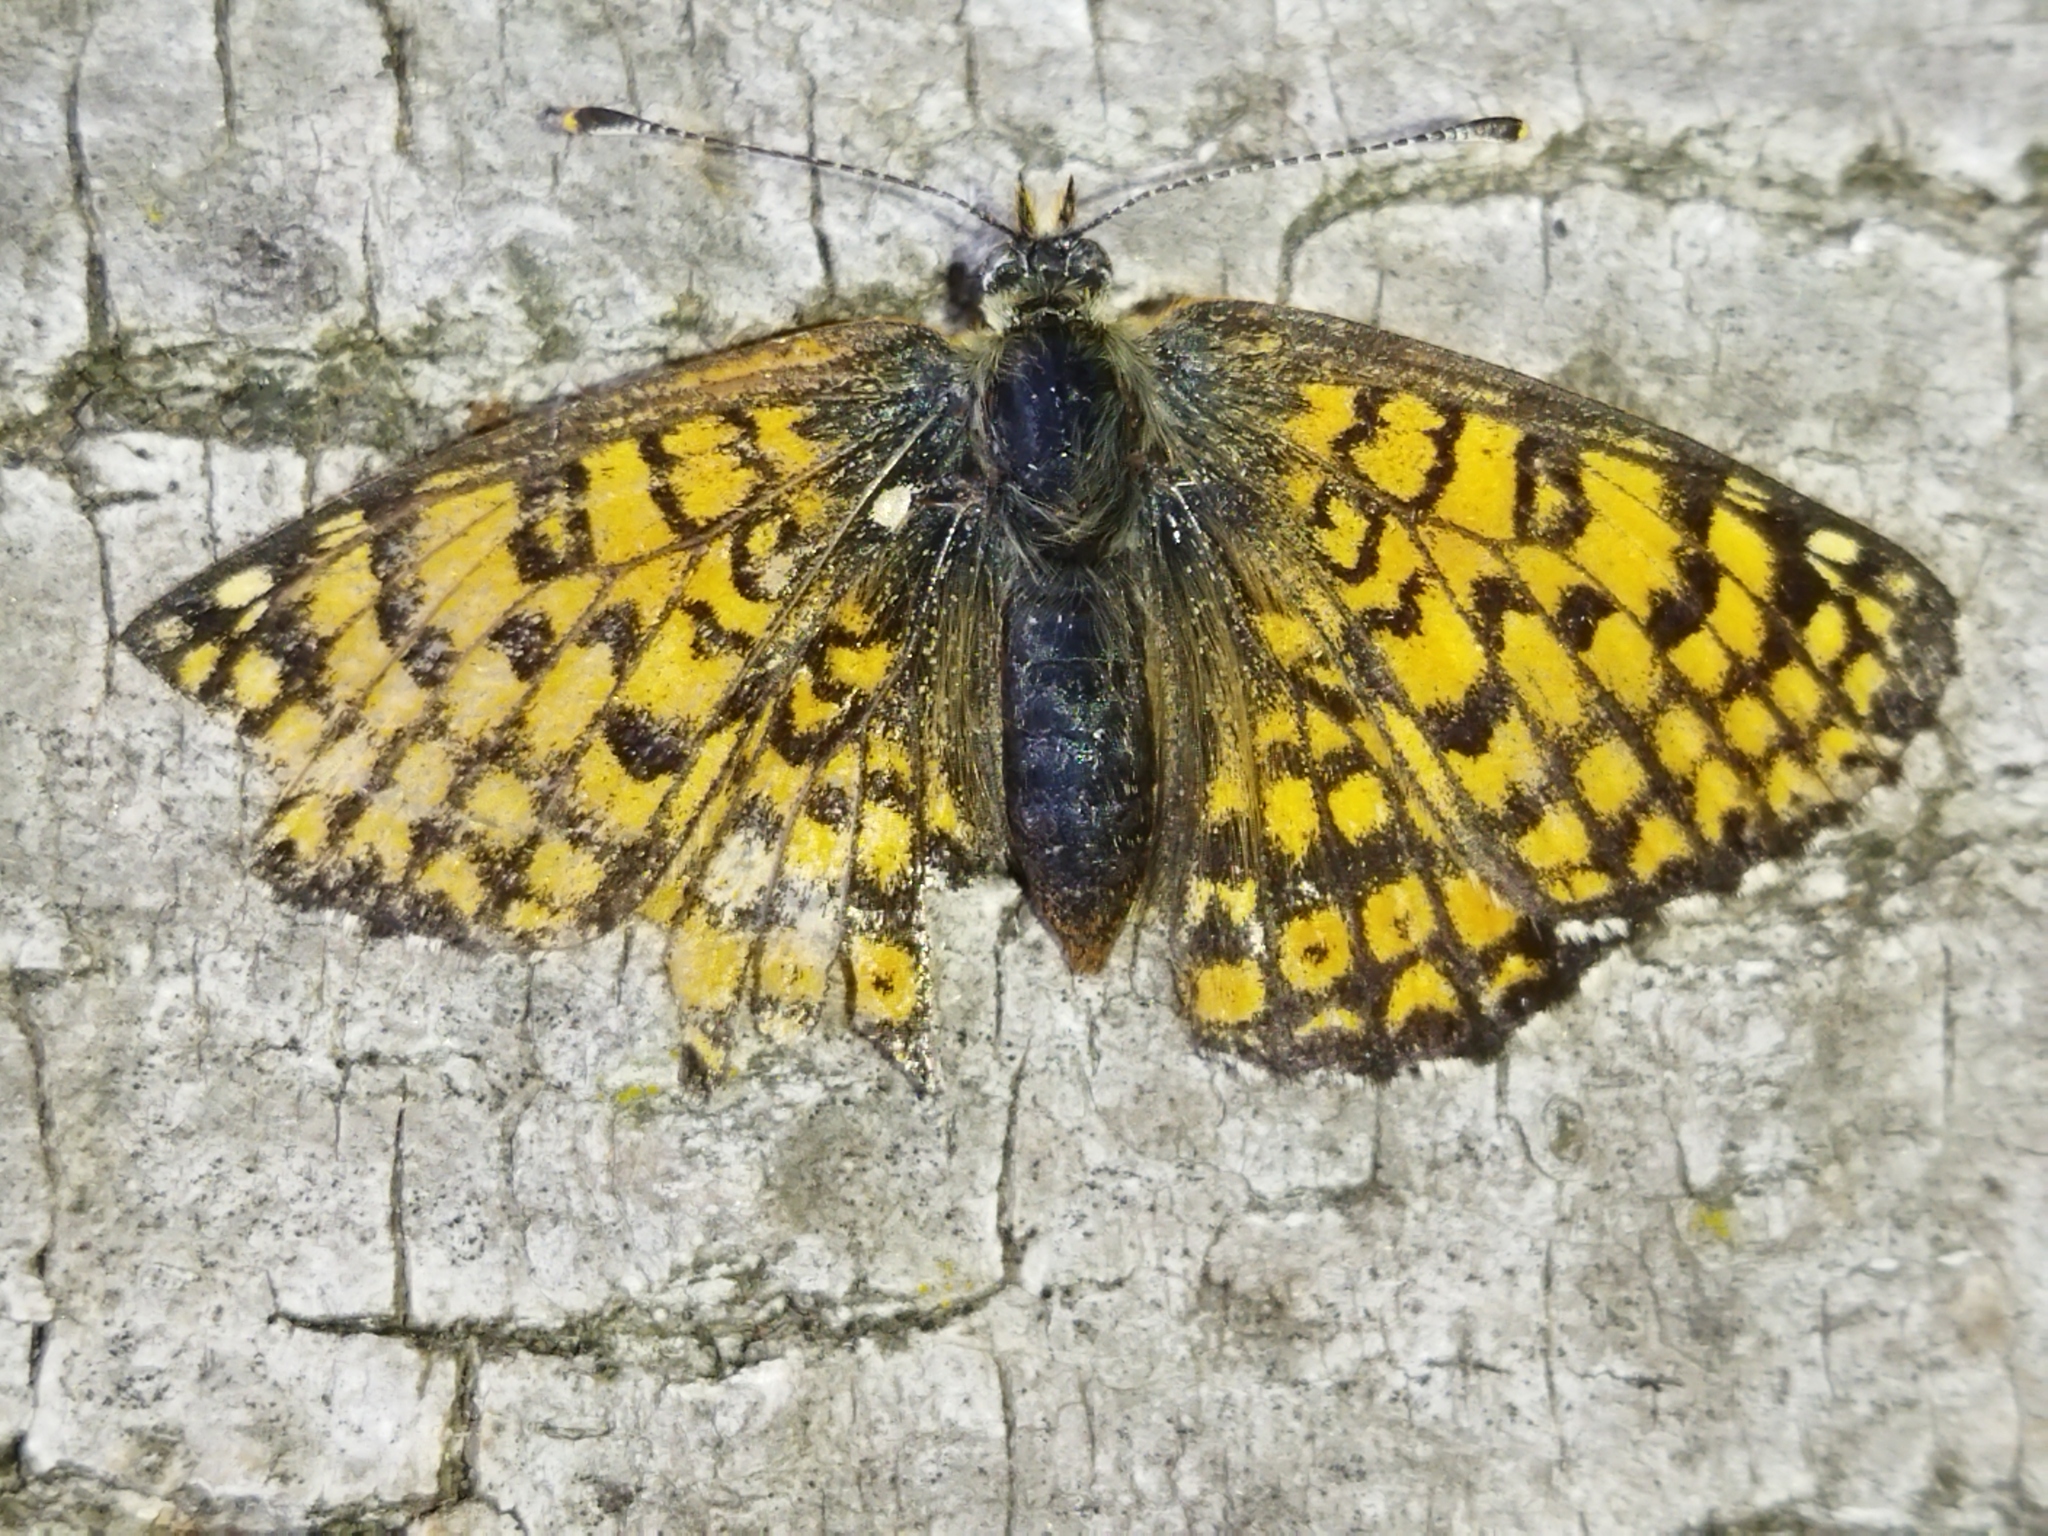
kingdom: Animalia
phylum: Arthropoda
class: Insecta
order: Lepidoptera
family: Nymphalidae
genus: Melitaea
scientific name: Melitaea cinxia
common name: Glanville fritillary
